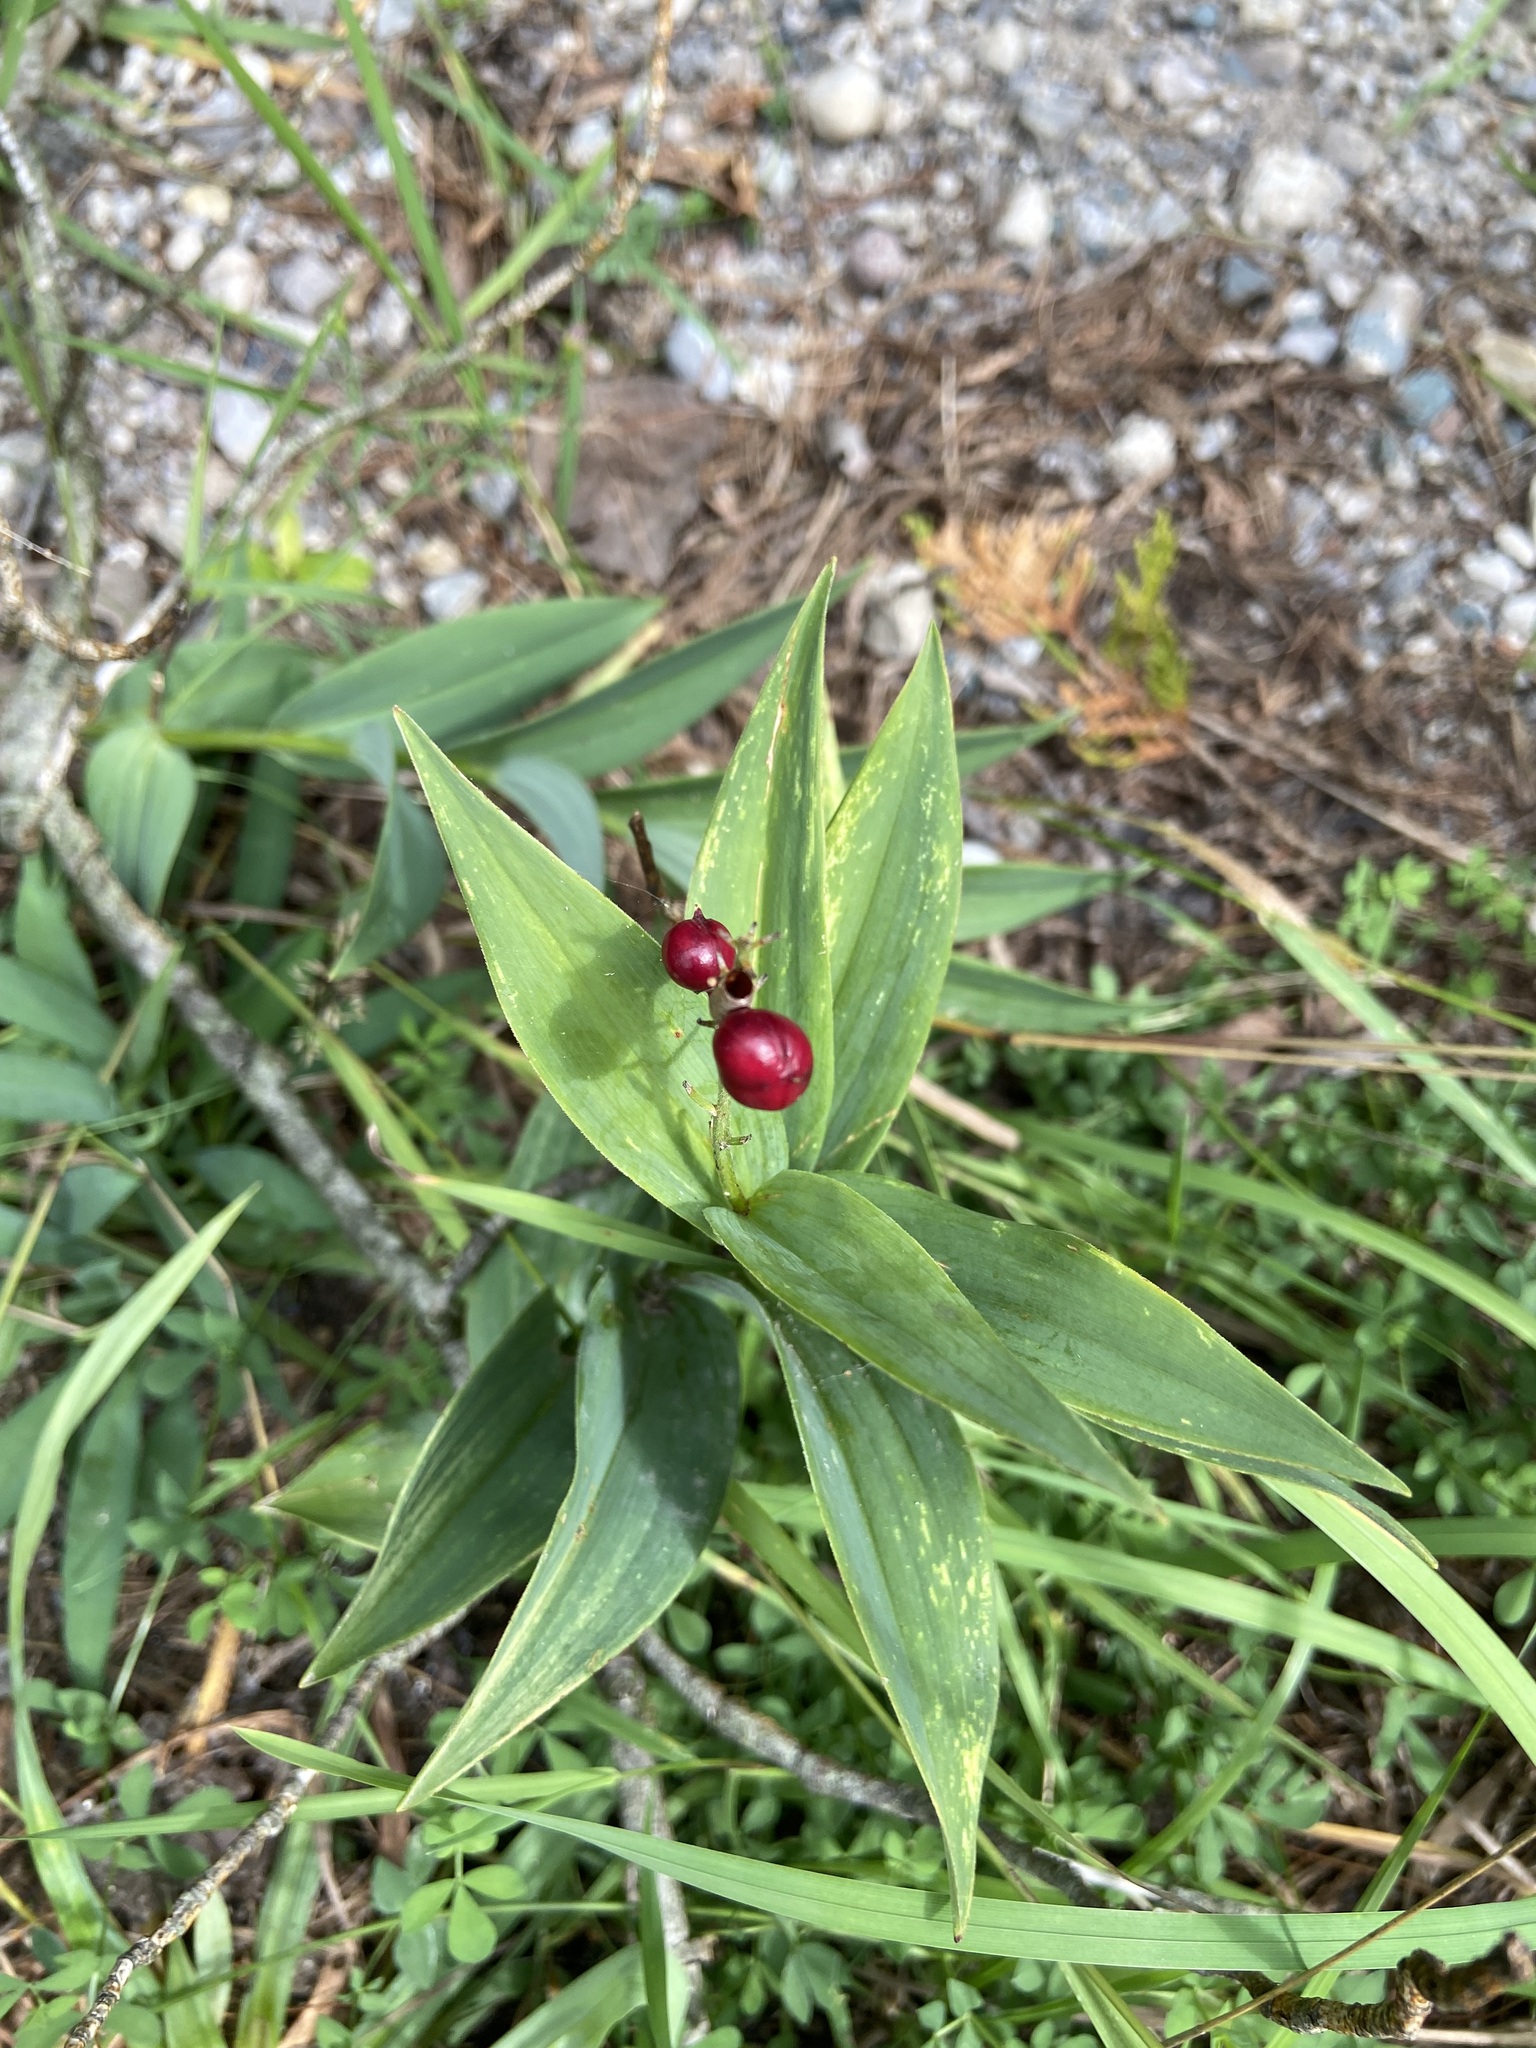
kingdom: Plantae
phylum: Tracheophyta
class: Liliopsida
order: Asparagales
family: Asparagaceae
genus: Maianthemum
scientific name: Maianthemum stellatum
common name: Little false solomon's seal
